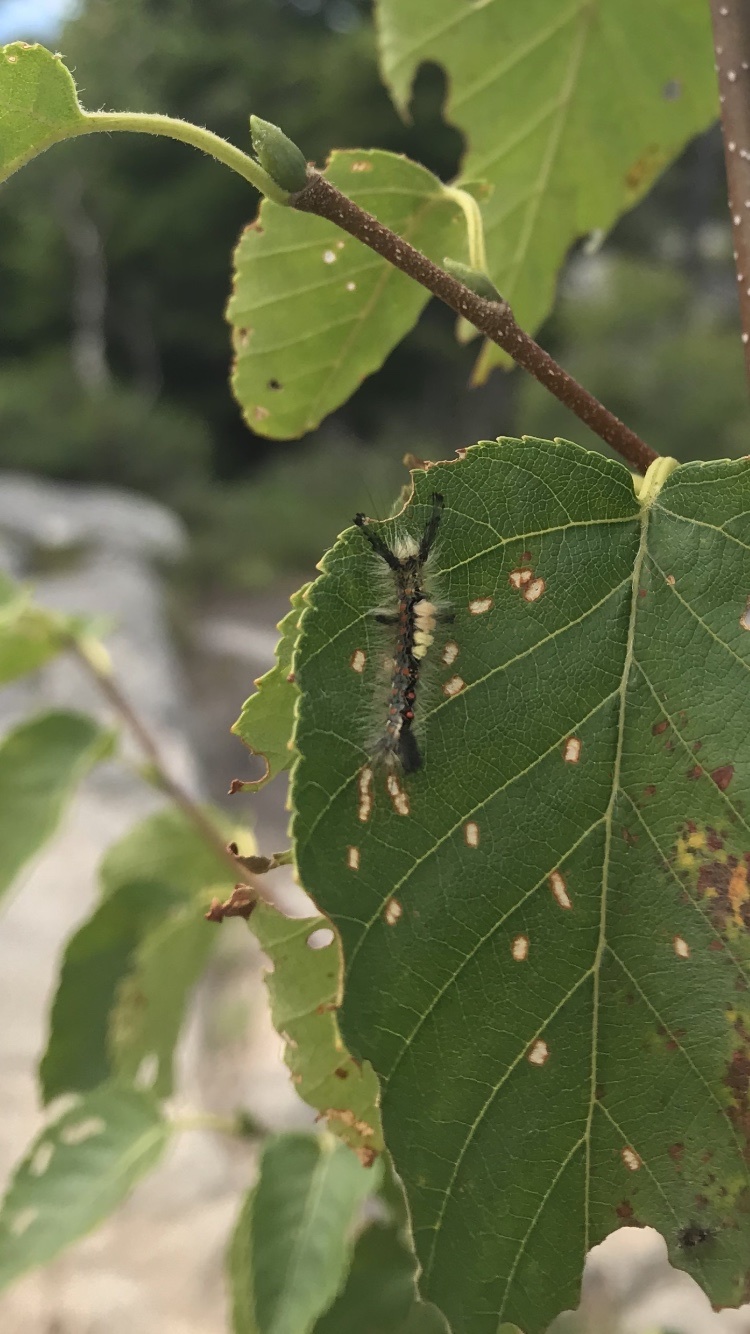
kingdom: Animalia
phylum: Arthropoda
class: Insecta
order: Lepidoptera
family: Erebidae
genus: Orgyia
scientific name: Orgyia antiqua
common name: Vapourer
